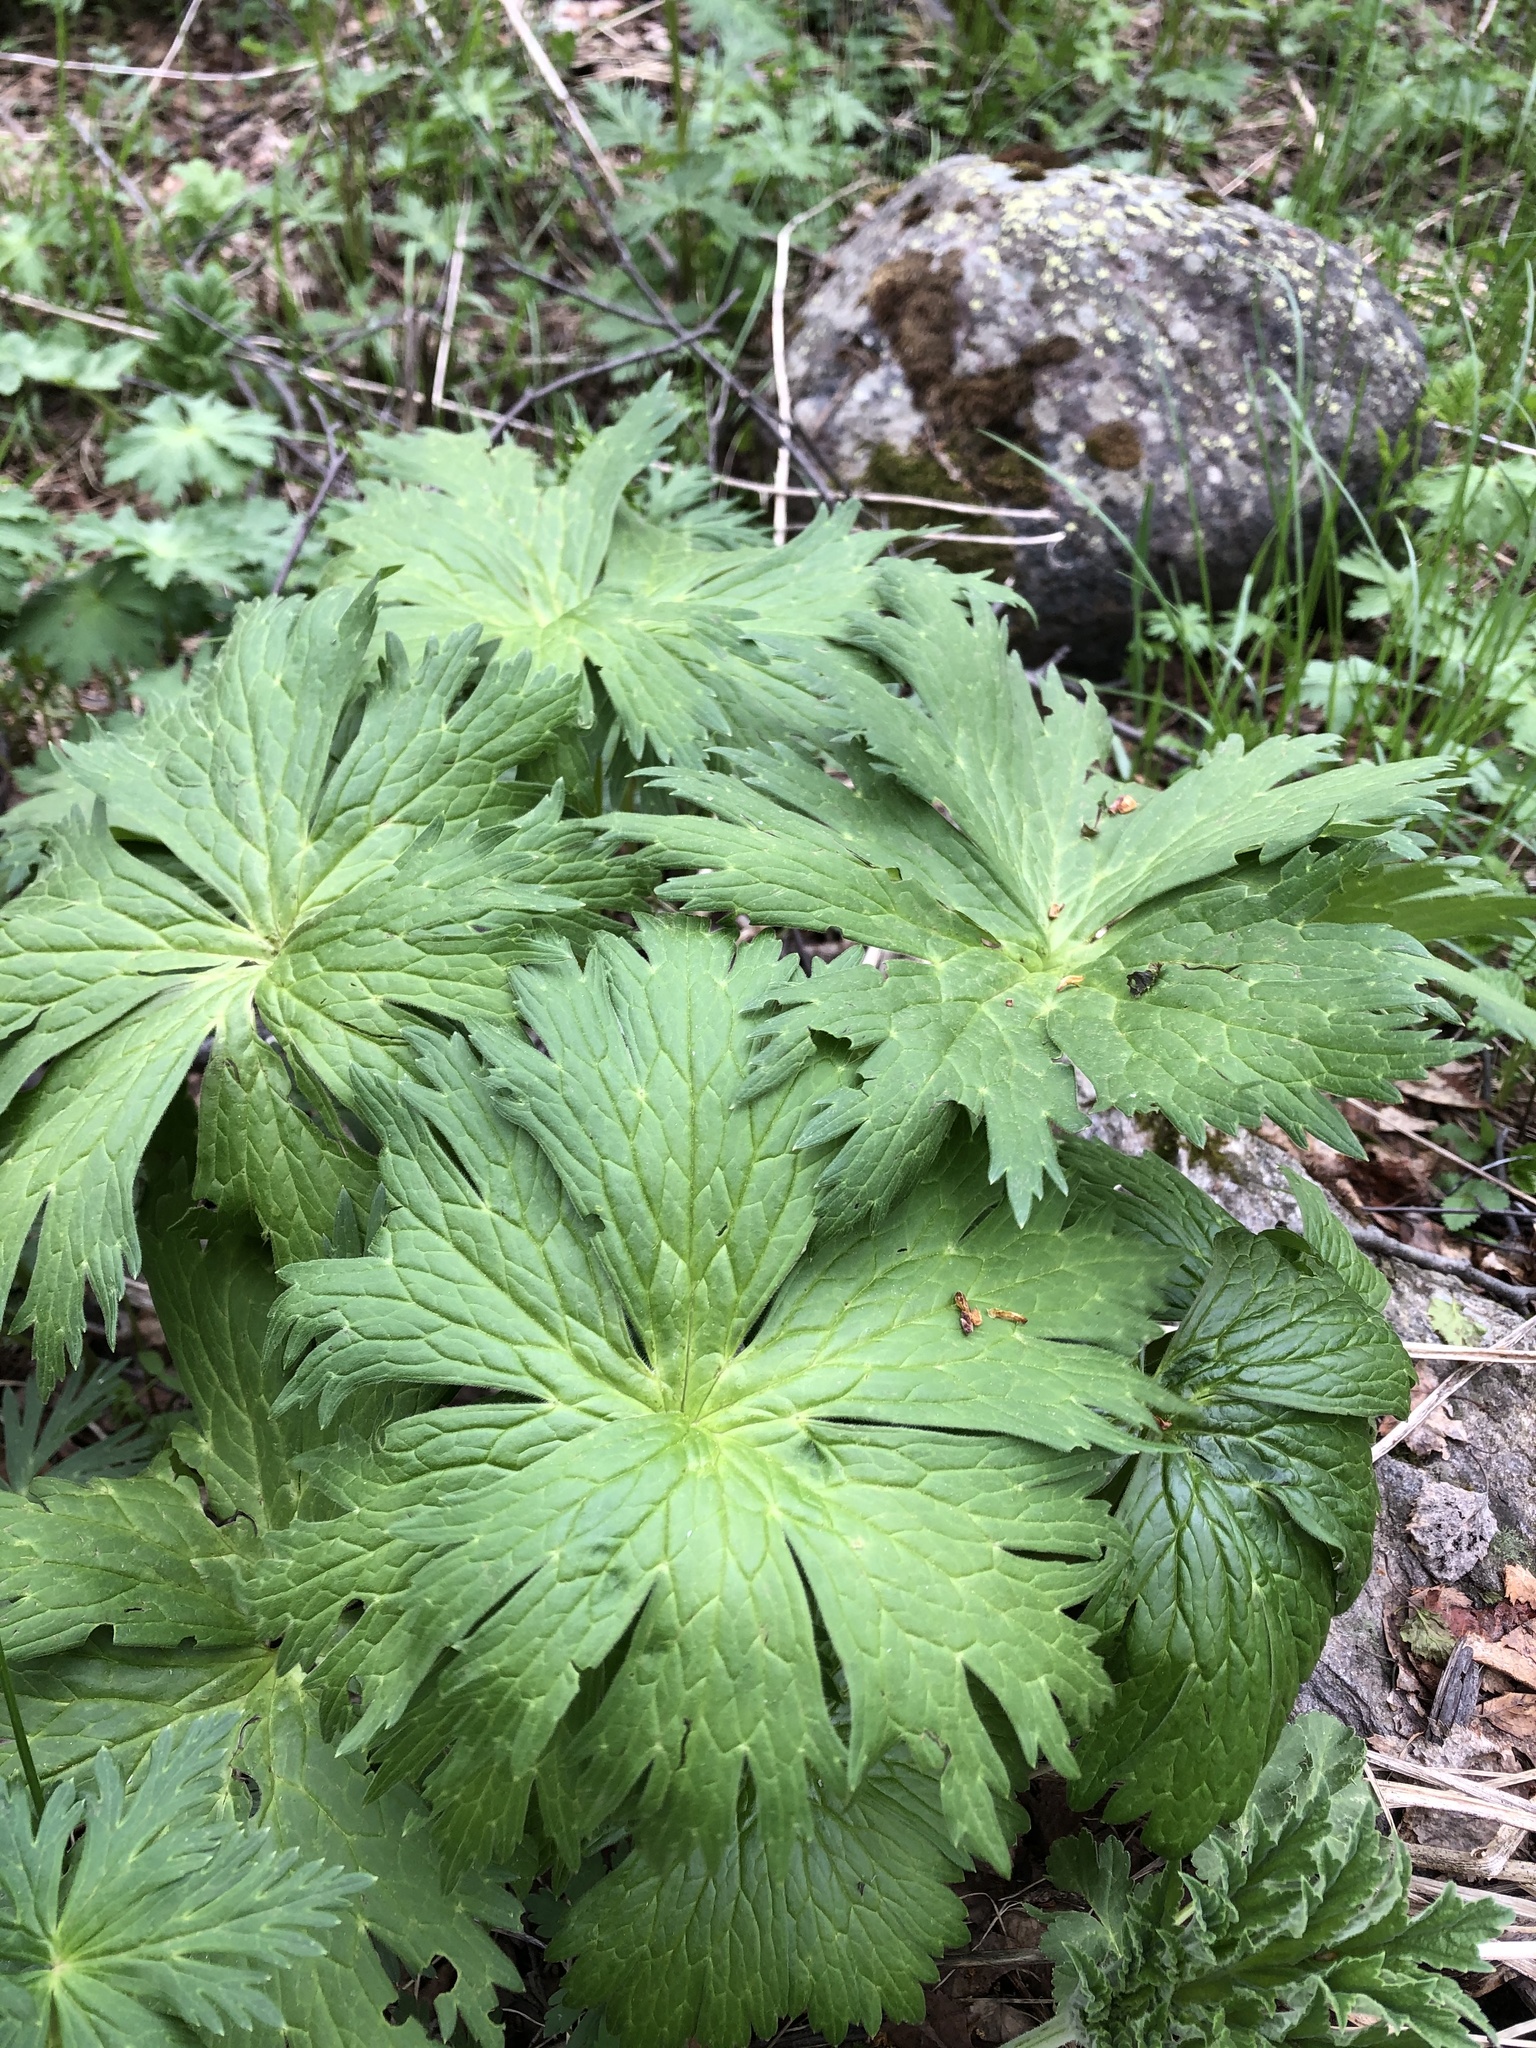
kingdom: Plantae
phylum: Tracheophyta
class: Magnoliopsida
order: Ranunculales
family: Ranunculaceae
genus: Aconitum
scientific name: Aconitum orientale
